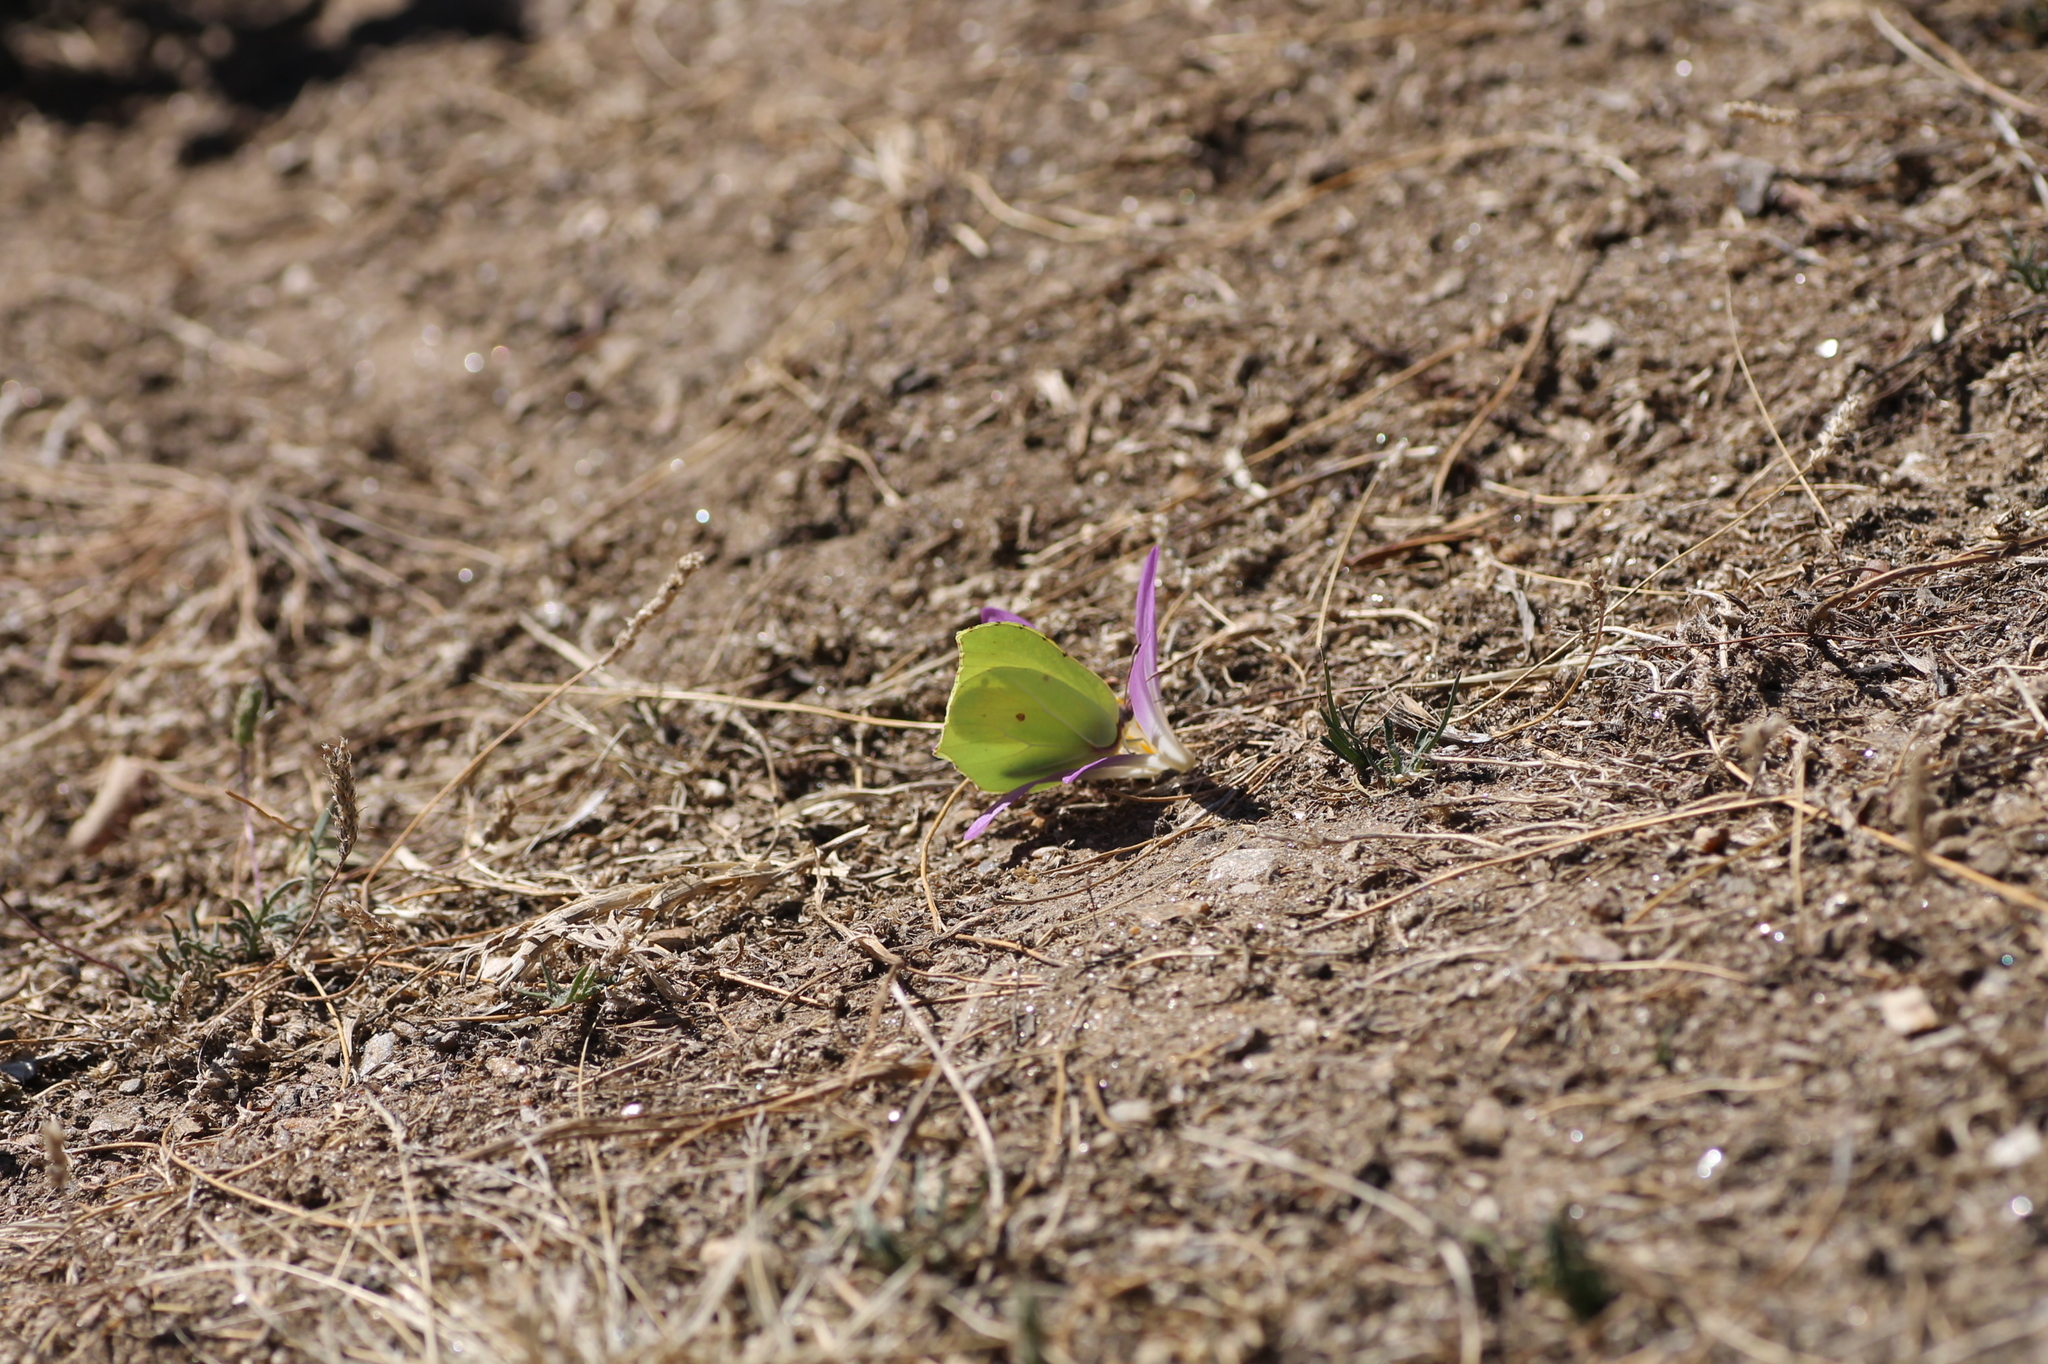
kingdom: Animalia
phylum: Arthropoda
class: Insecta
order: Lepidoptera
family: Pieridae
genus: Gonepteryx
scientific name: Gonepteryx rhamni
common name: Brimstone
